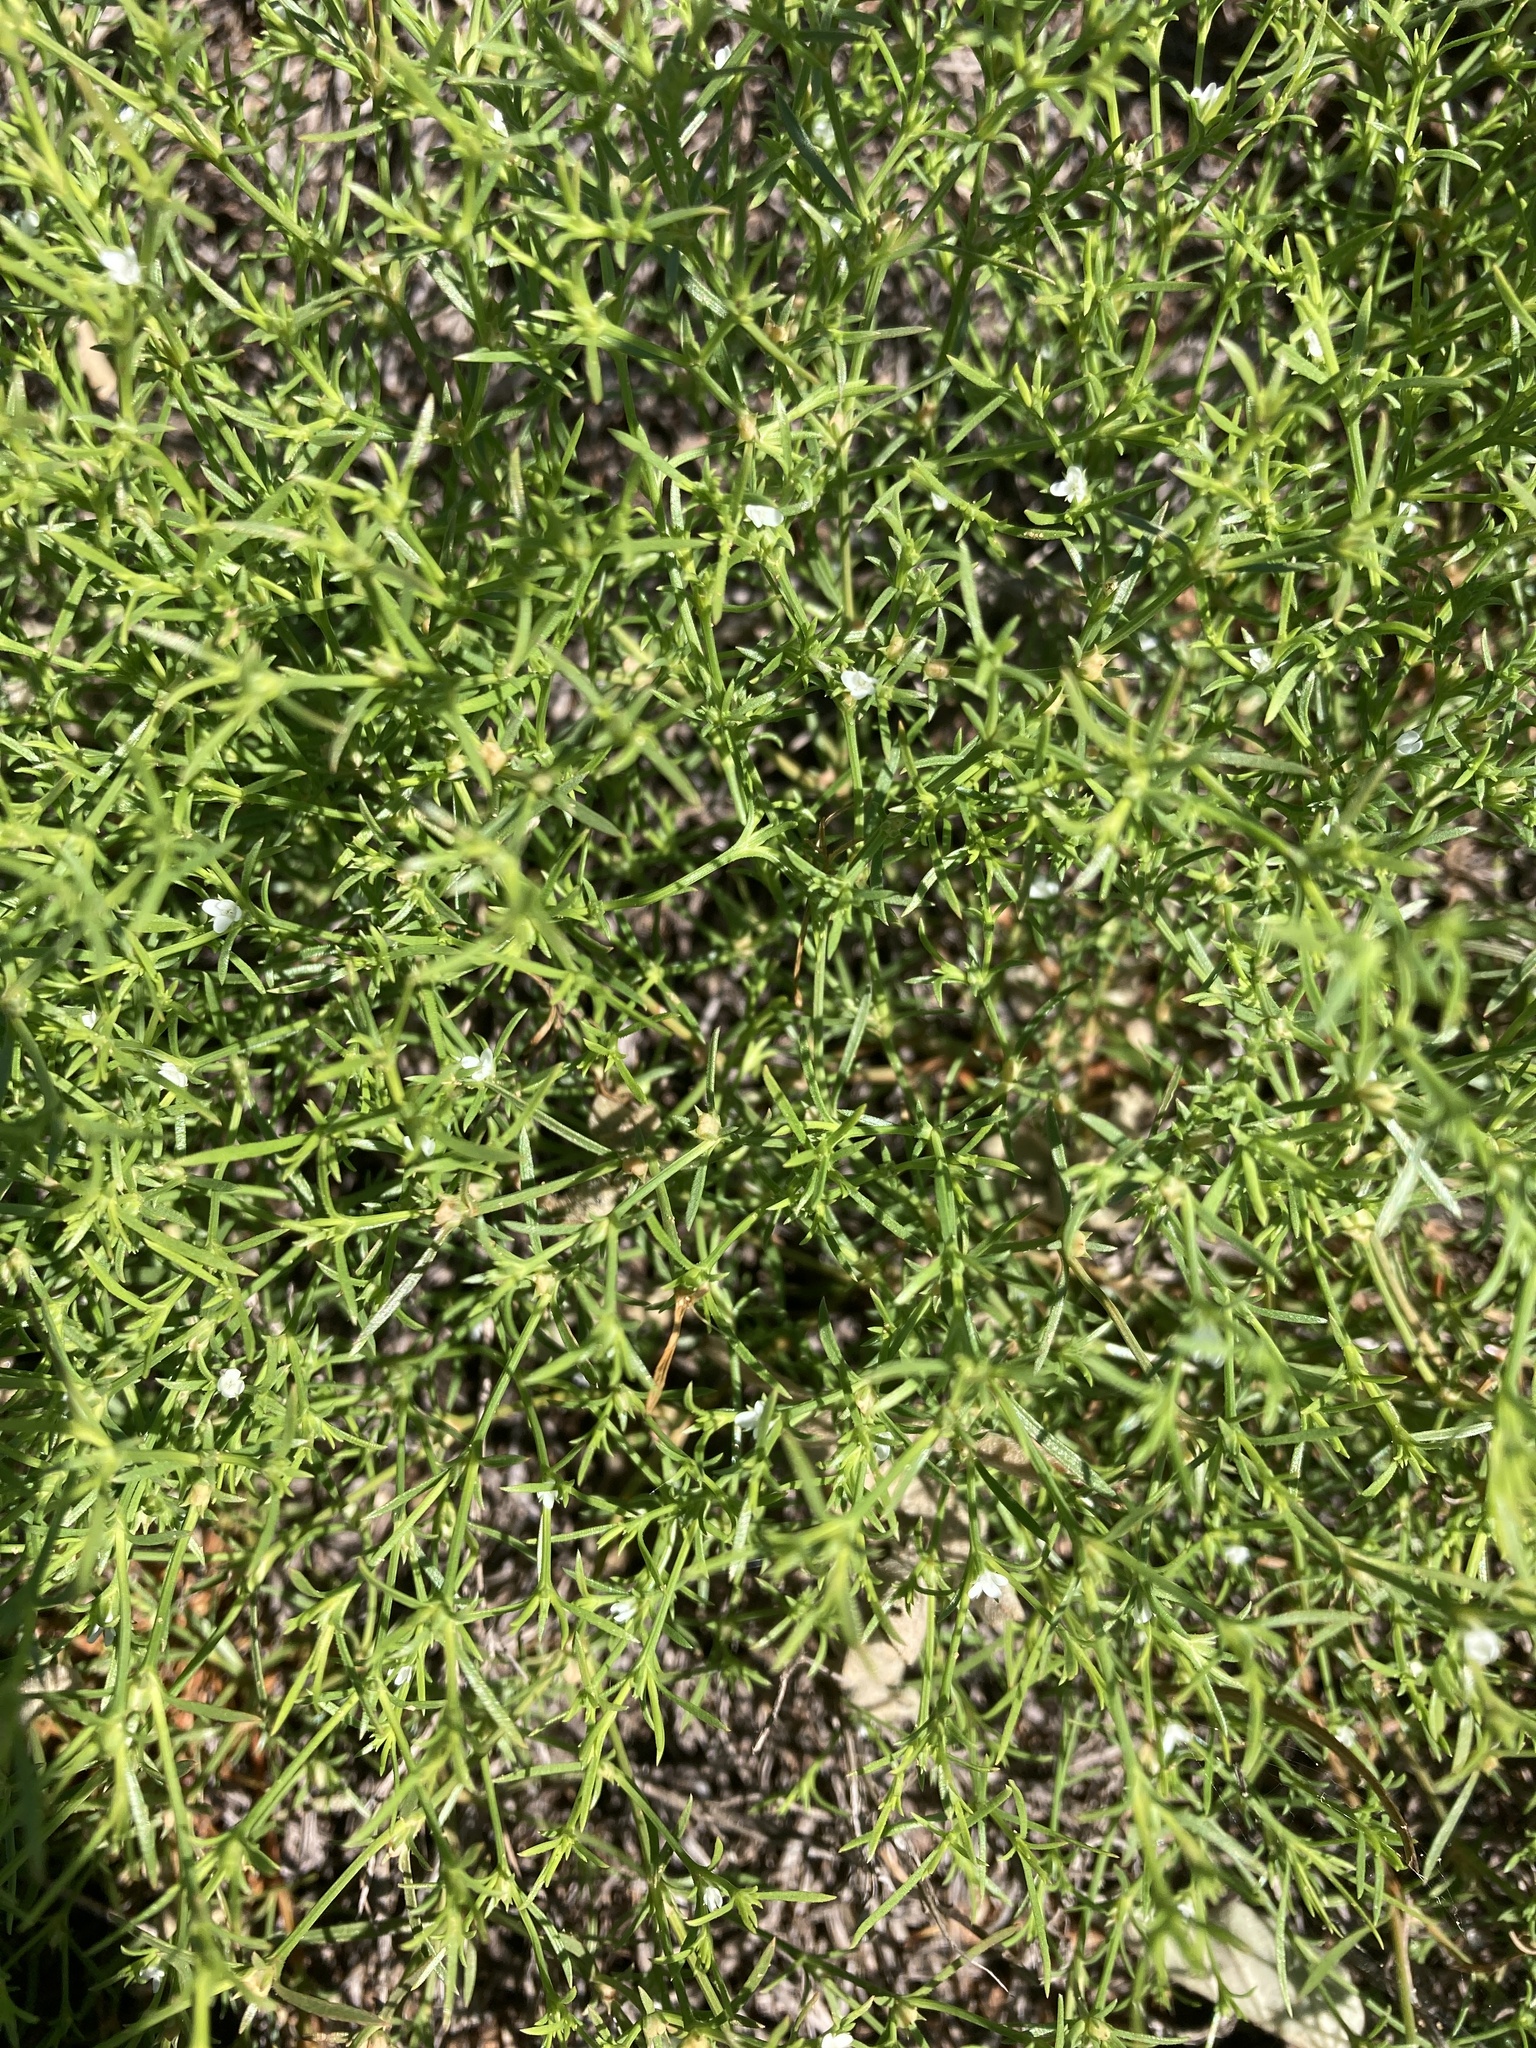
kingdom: Plantae
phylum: Tracheophyta
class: Magnoliopsida
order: Lamiales
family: Tetrachondraceae
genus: Polypremum
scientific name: Polypremum procumbens
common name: Juniper-leaf
